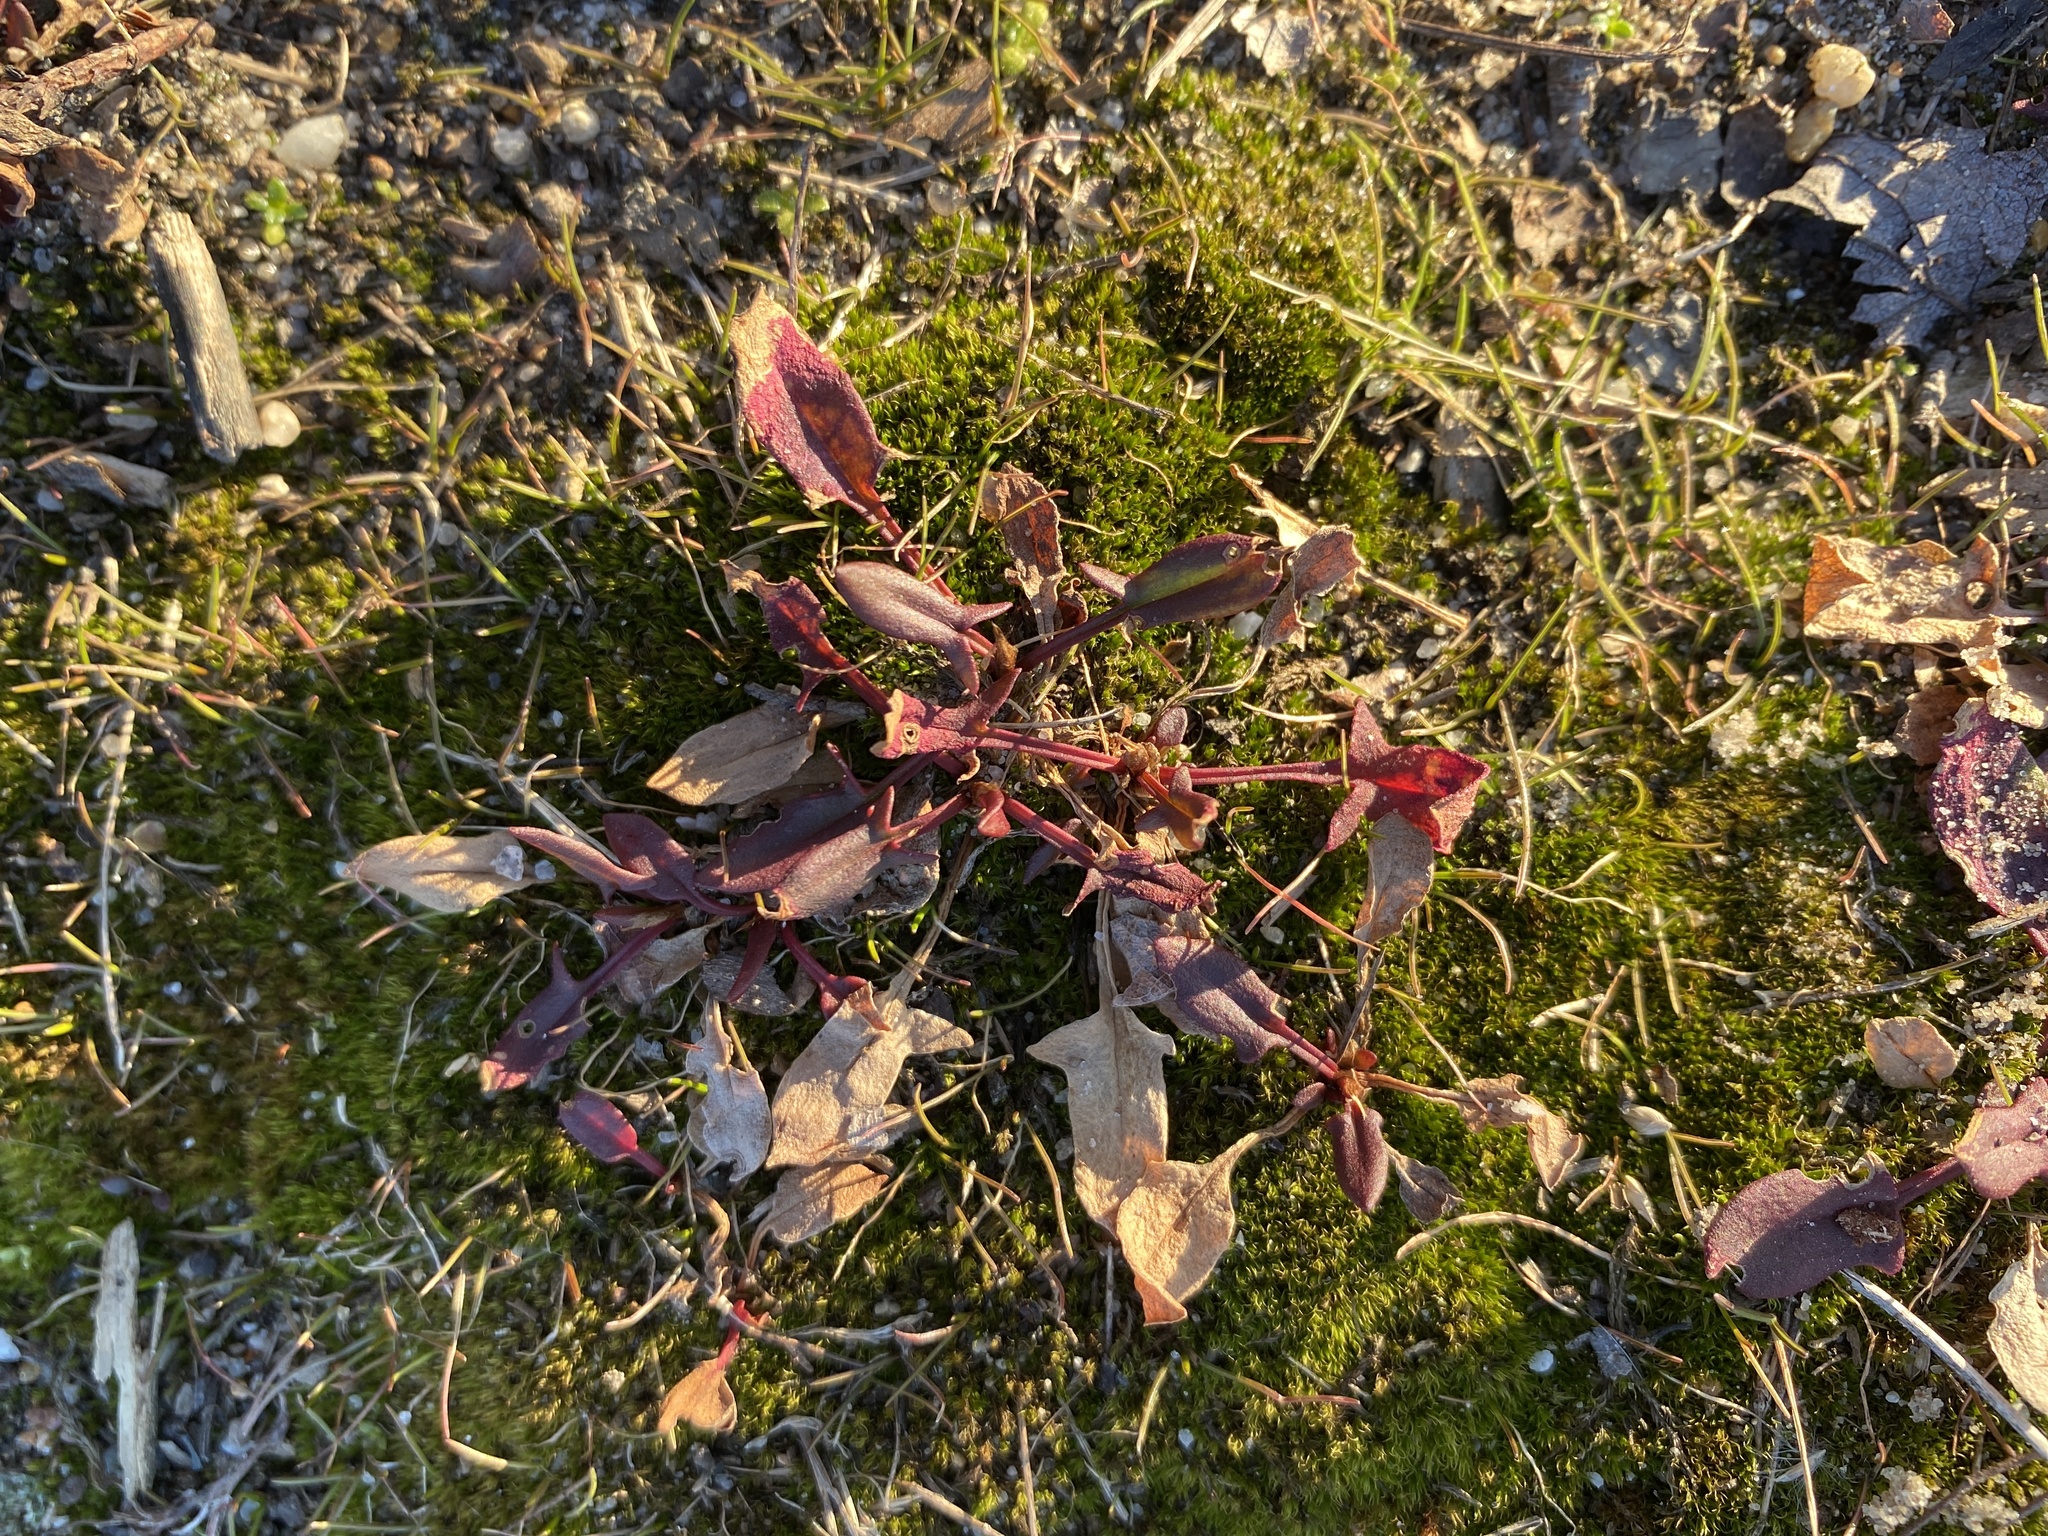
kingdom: Plantae
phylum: Tracheophyta
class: Magnoliopsida
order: Caryophyllales
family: Polygonaceae
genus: Rumex
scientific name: Rumex acetosella
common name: Common sheep sorrel
